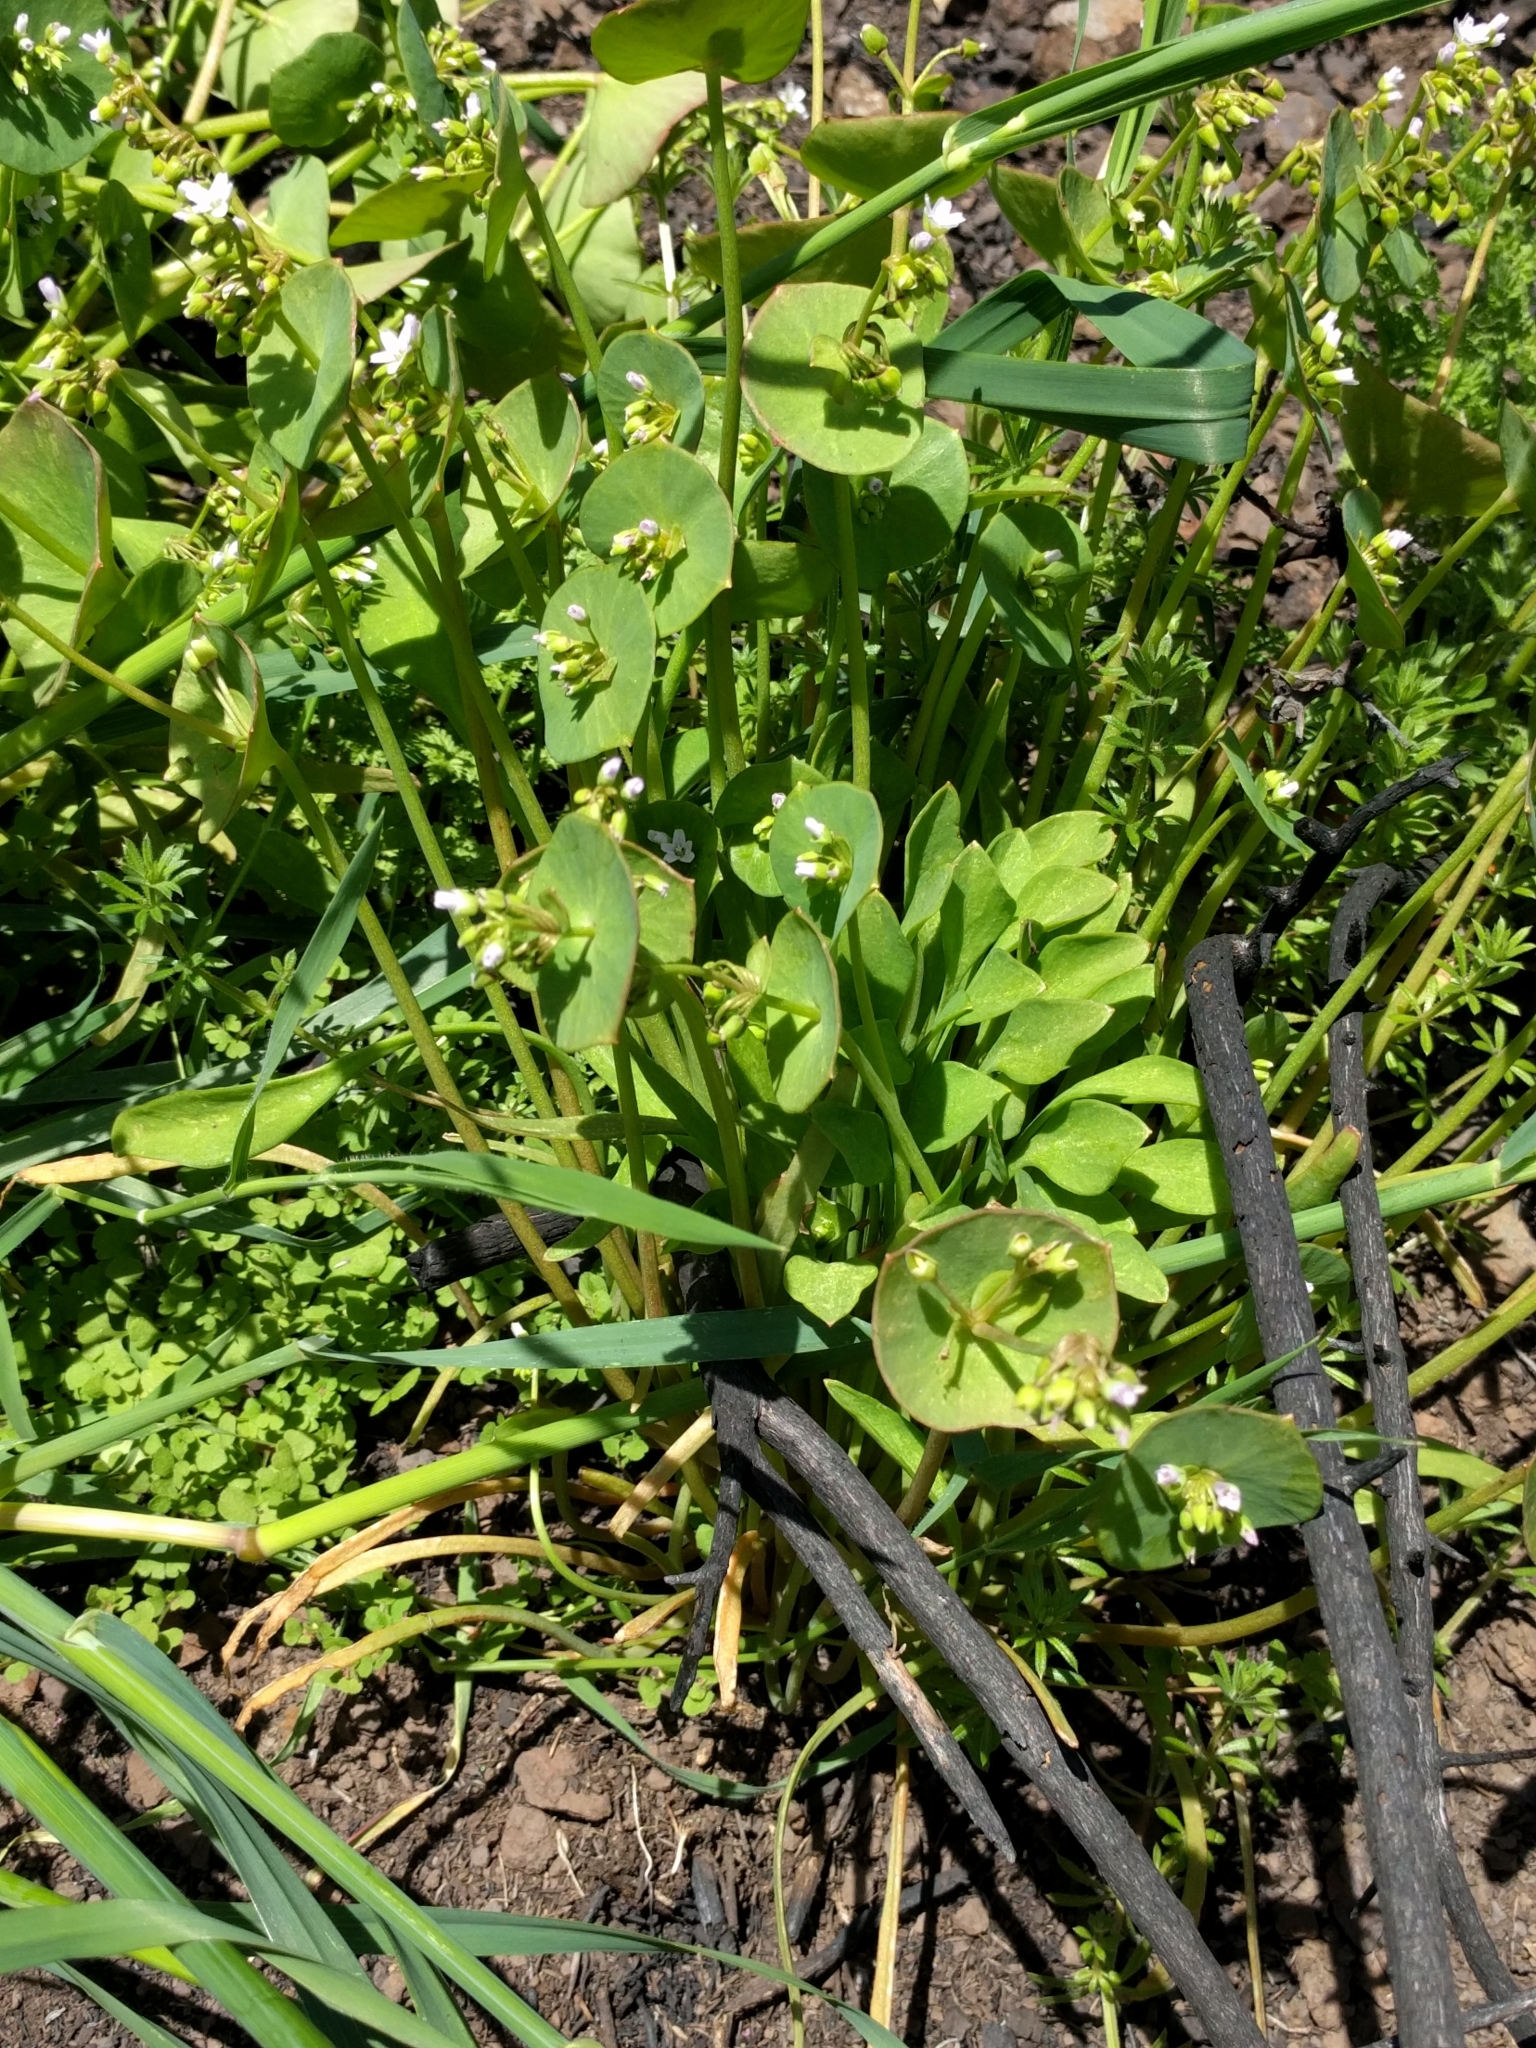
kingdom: Plantae
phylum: Tracheophyta
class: Magnoliopsida
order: Caryophyllales
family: Montiaceae
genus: Claytonia
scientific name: Claytonia perfoliata
